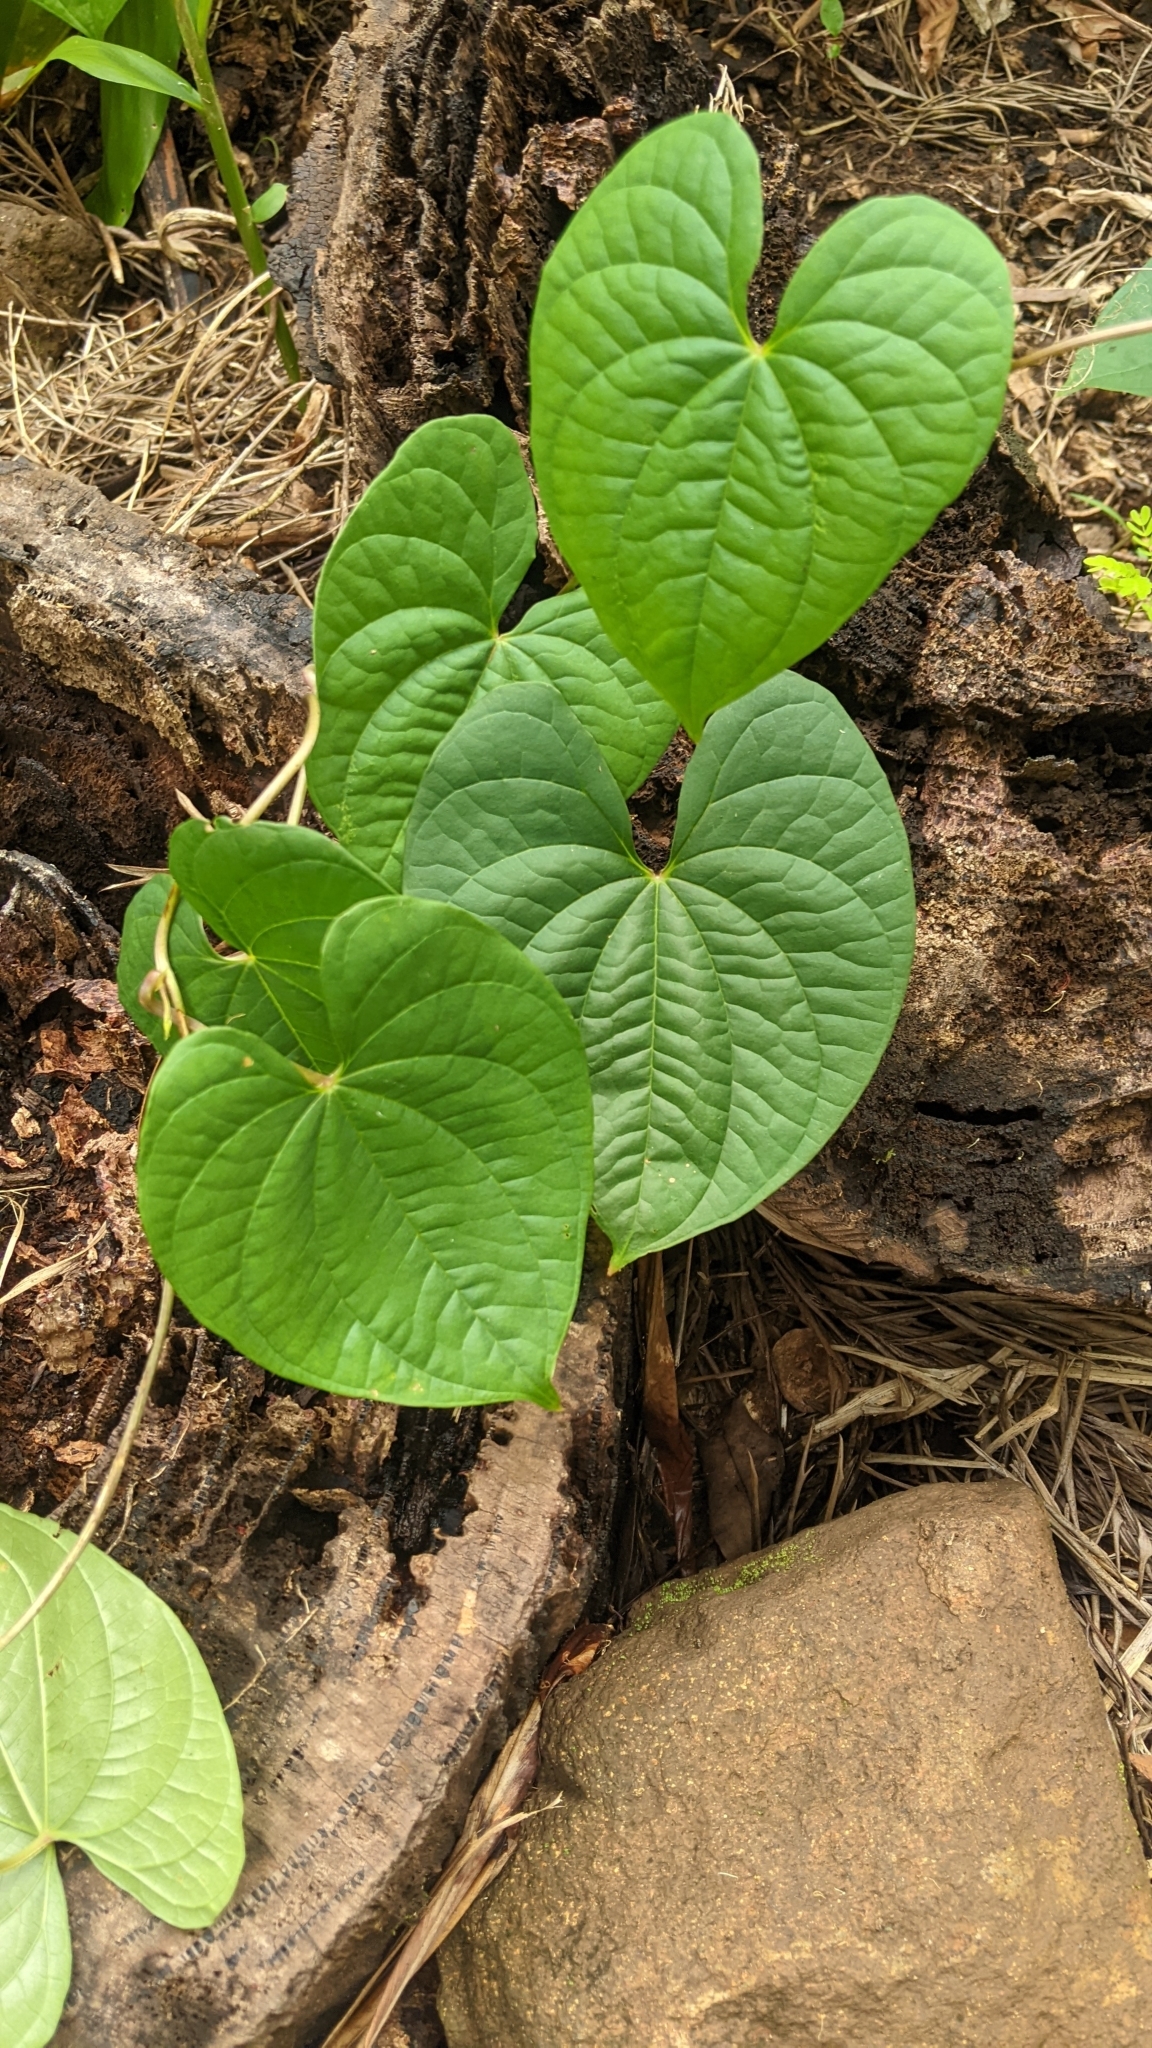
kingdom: Plantae
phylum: Tracheophyta
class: Liliopsida
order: Dioscoreales
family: Dioscoreaceae
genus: Dioscorea
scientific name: Dioscorea bulbifera
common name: Air yam
